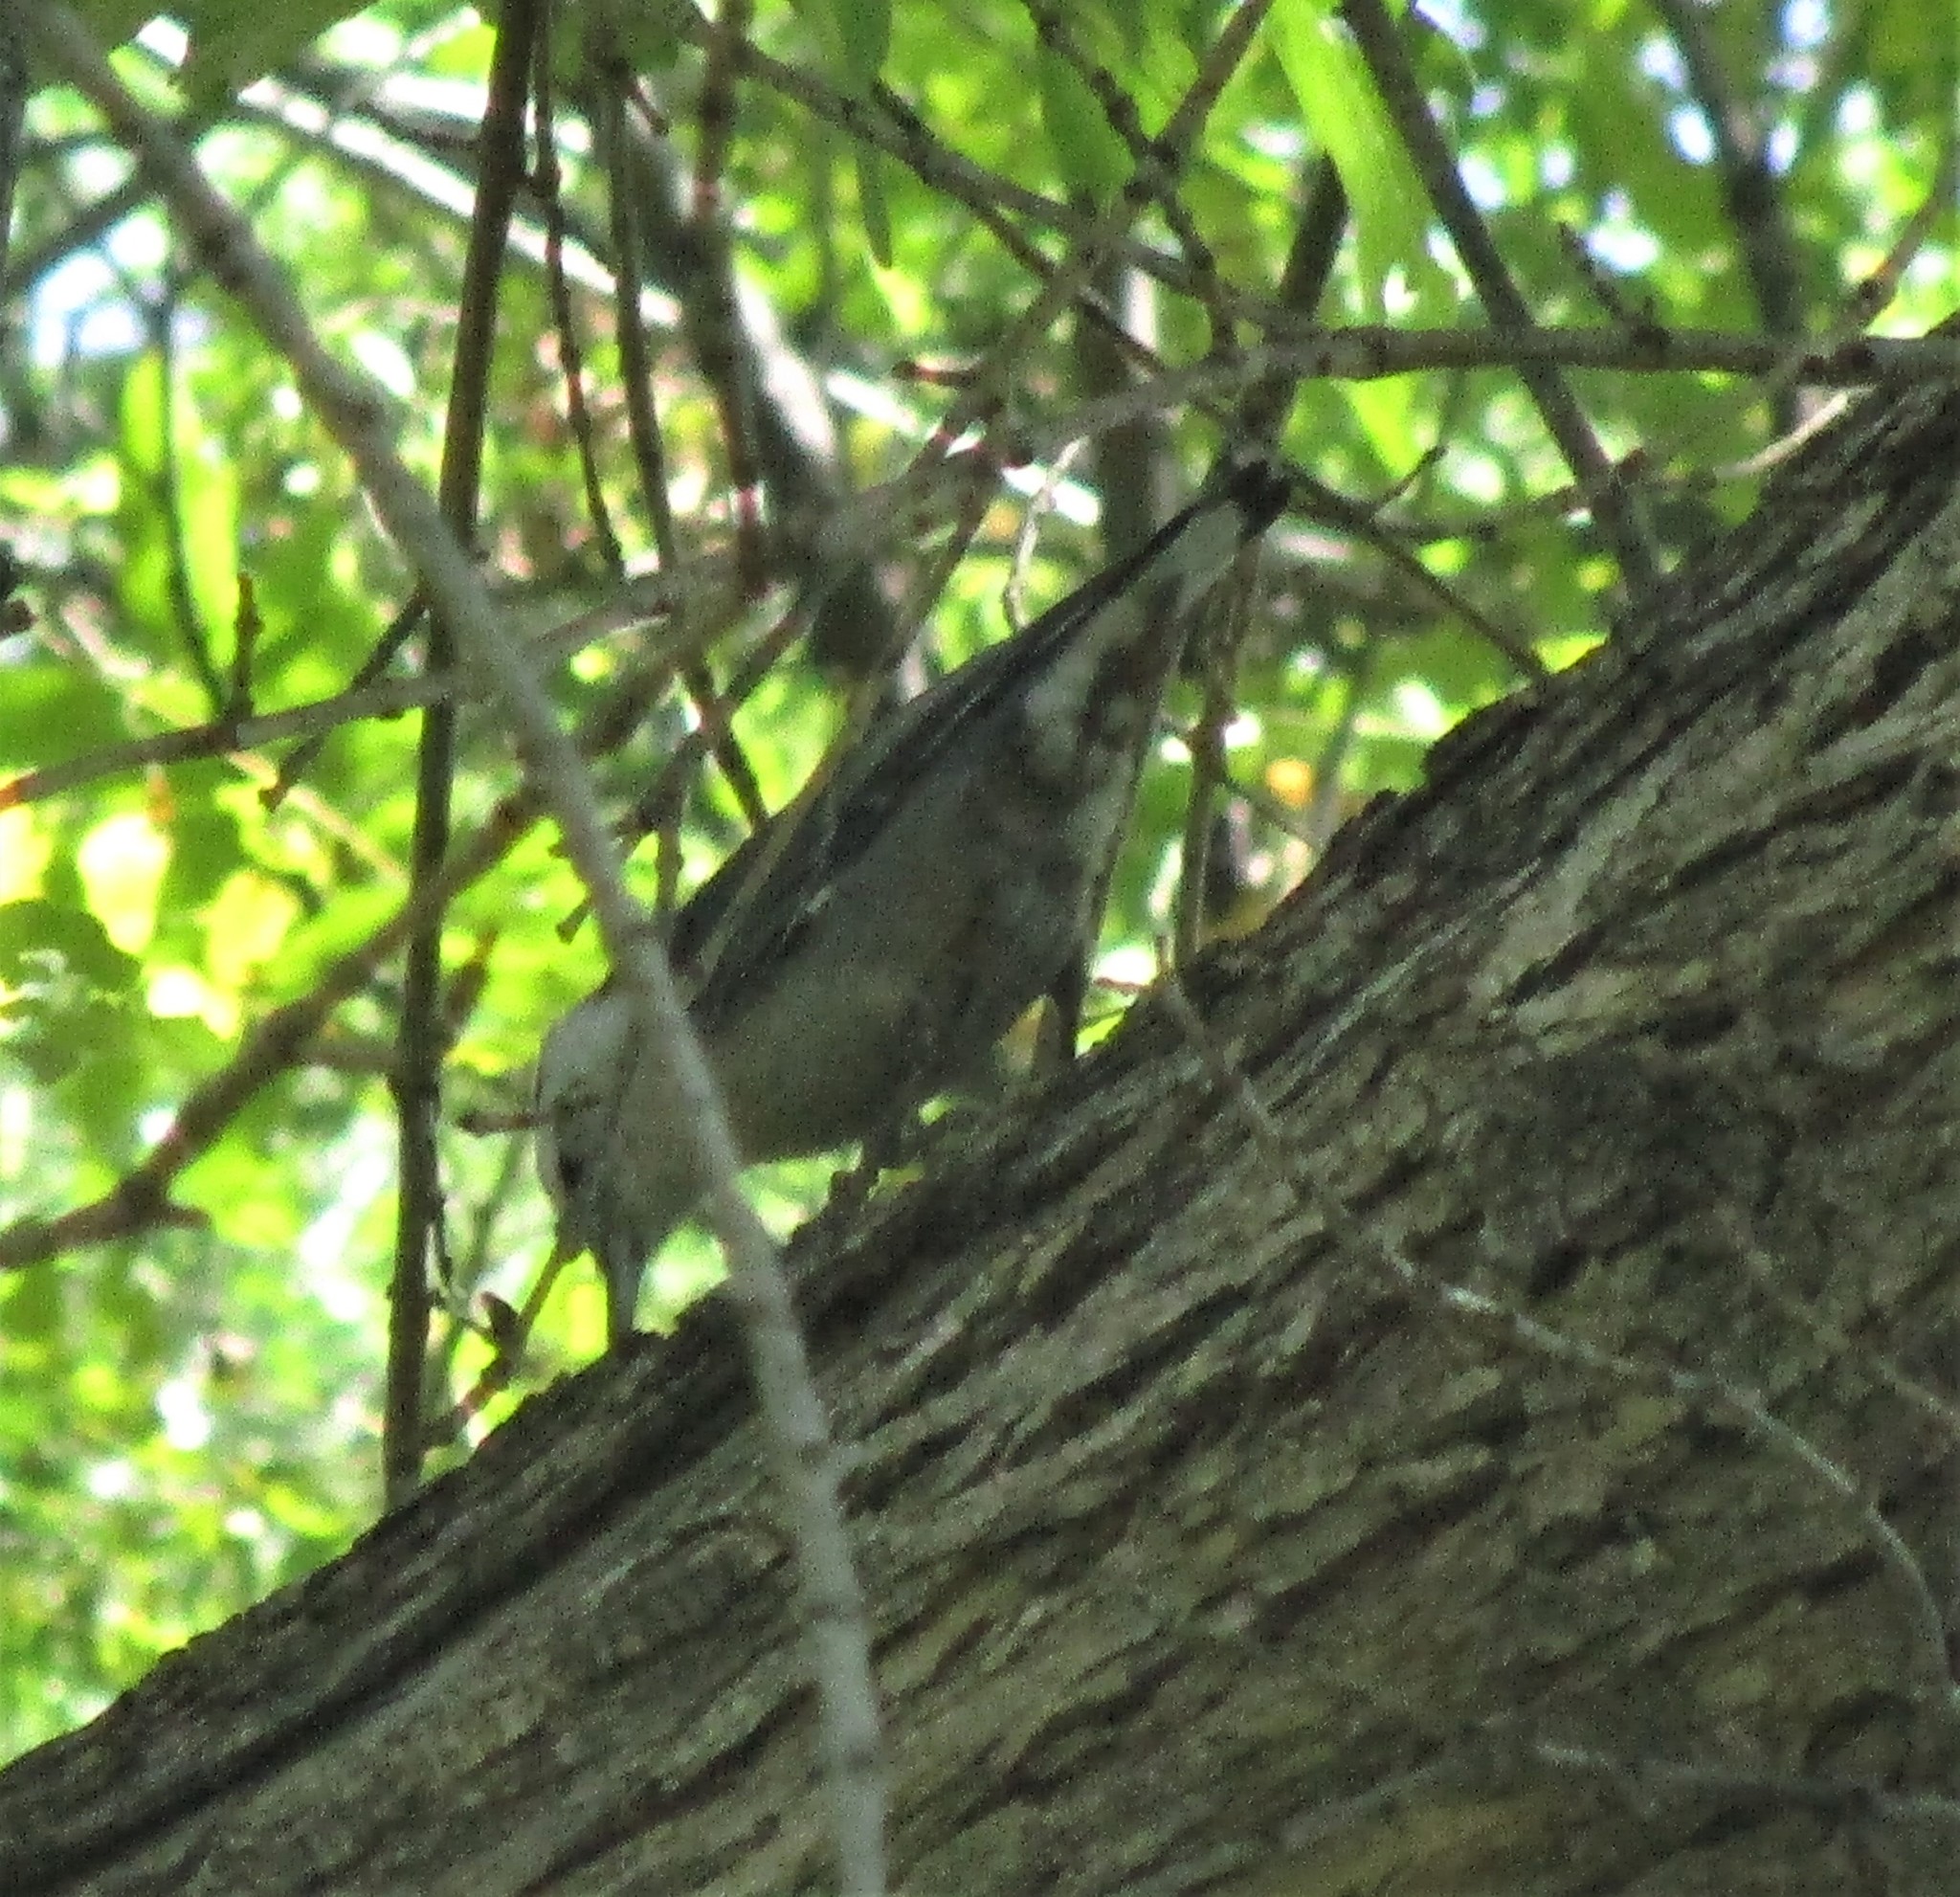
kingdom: Animalia
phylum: Chordata
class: Aves
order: Passeriformes
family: Sittidae
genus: Sitta
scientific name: Sitta carolinensis
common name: White-breasted nuthatch
